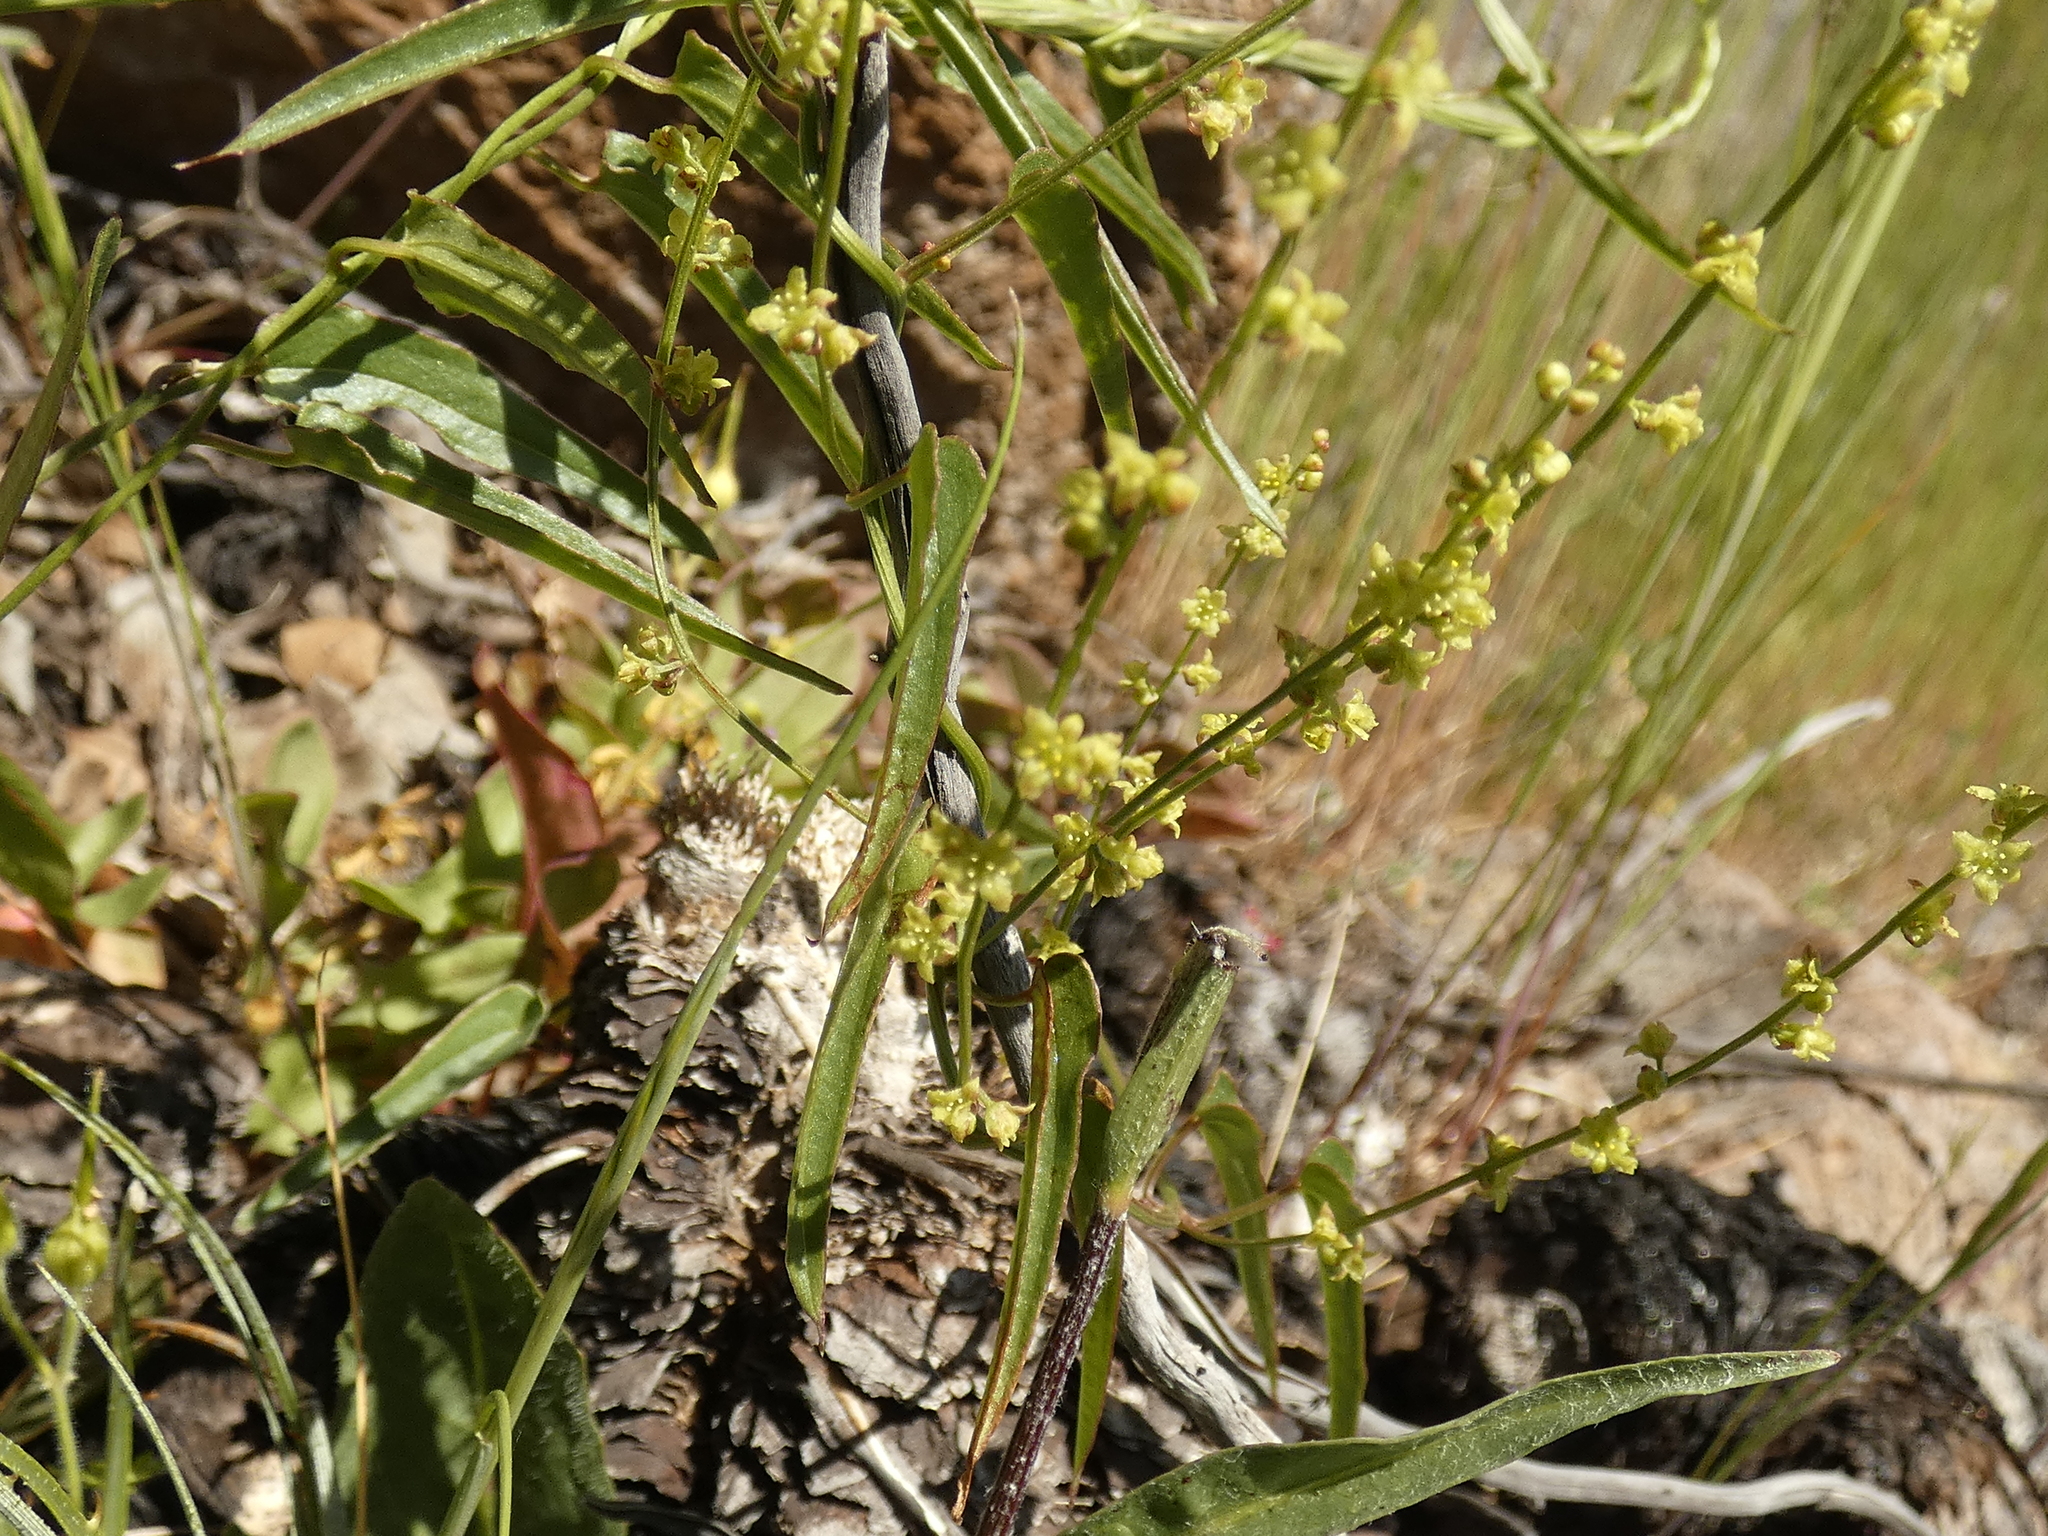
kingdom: Plantae
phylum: Tracheophyta
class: Liliopsida
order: Dioscoreales
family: Dioscoreaceae
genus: Dioscorea
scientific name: Dioscorea saxatilis
